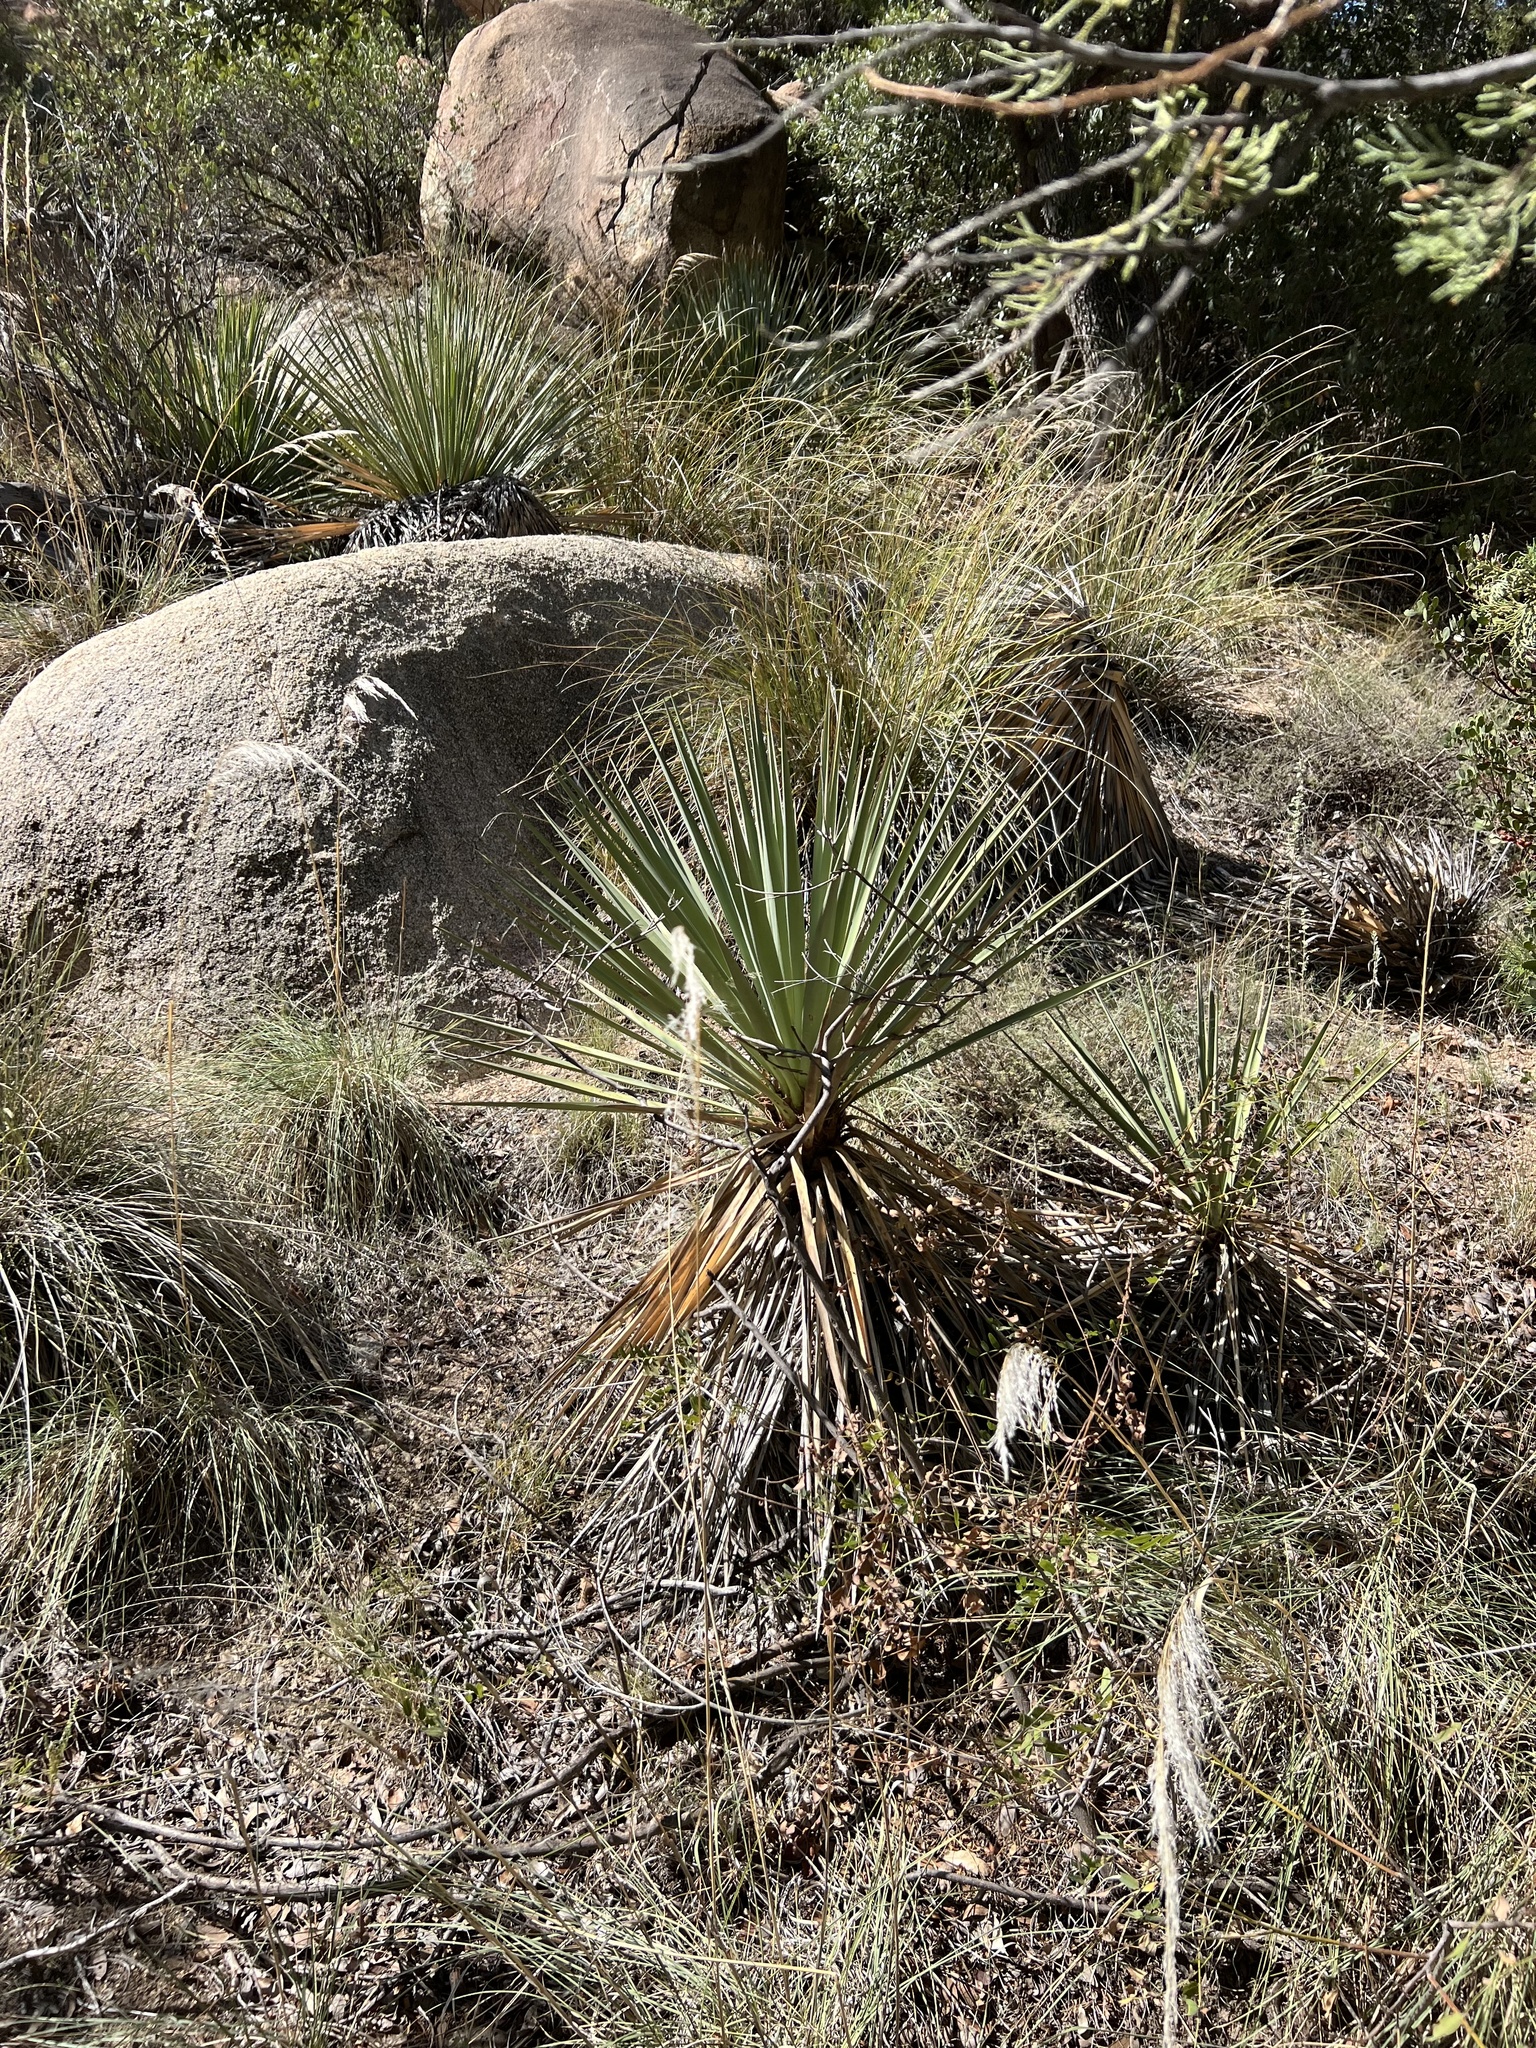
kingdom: Plantae
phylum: Tracheophyta
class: Liliopsida
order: Asparagales
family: Asparagaceae
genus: Yucca
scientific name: Yucca schottii
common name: Hoary yucca
